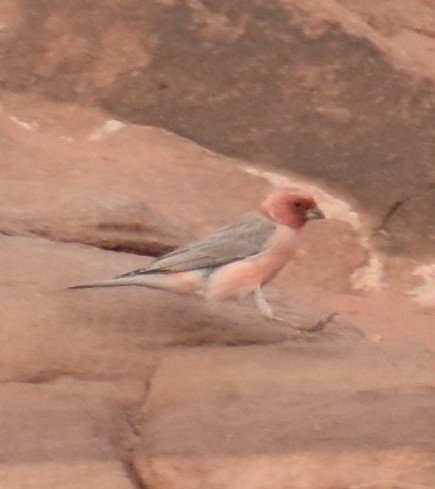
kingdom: Animalia
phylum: Chordata
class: Aves
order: Passeriformes
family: Fringillidae
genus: Carpodacus
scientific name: Carpodacus synoicus
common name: Sinai rosefinch
